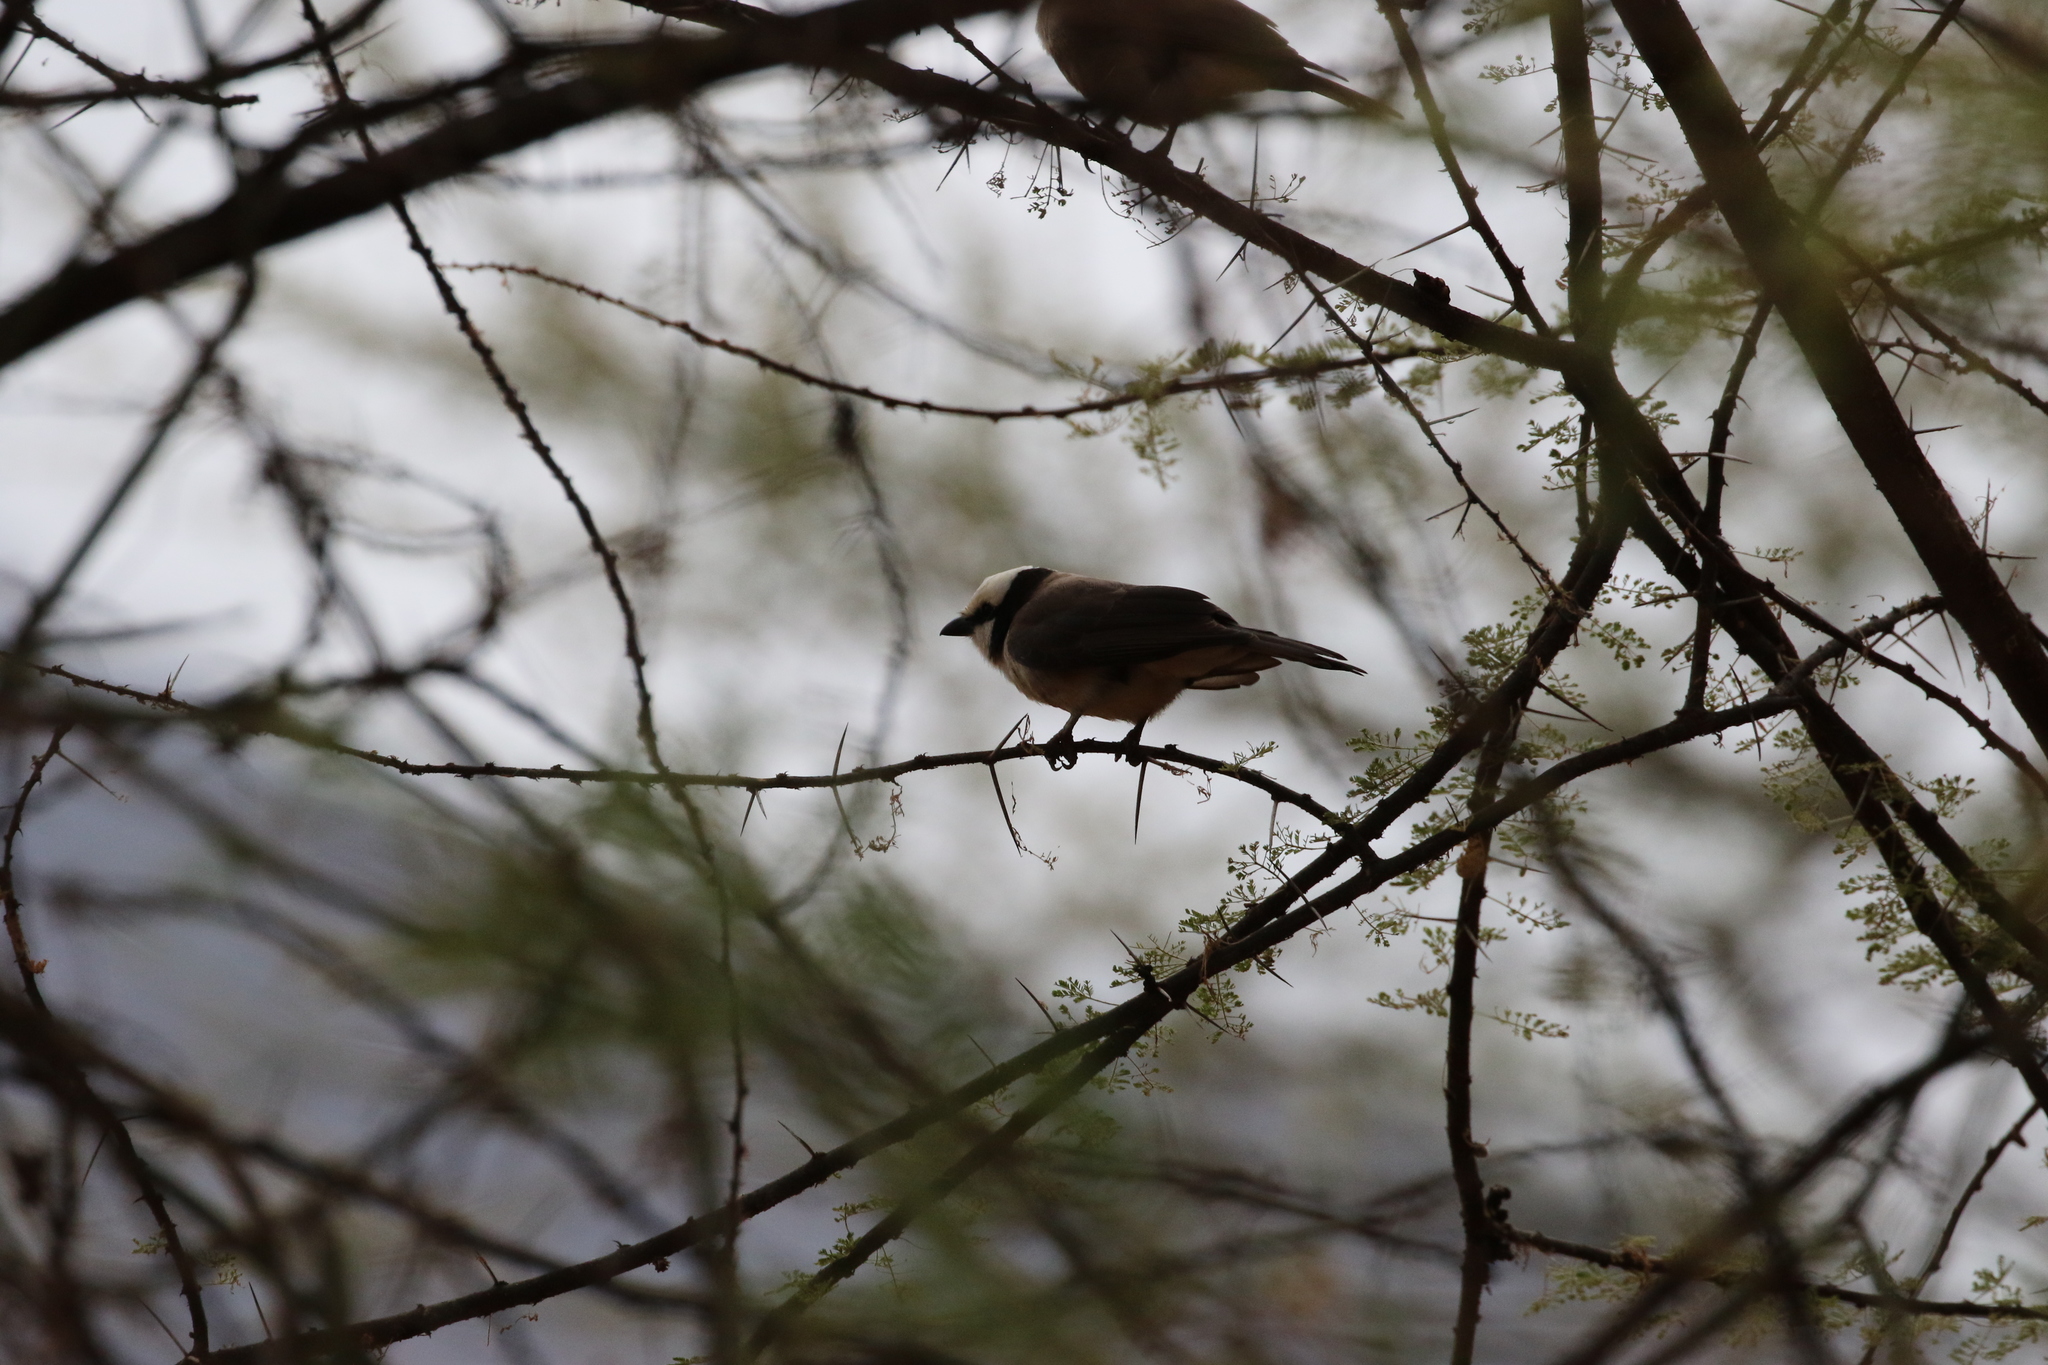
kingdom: Animalia
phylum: Chordata
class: Aves
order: Passeriformes
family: Laniidae
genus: Eurocephalus
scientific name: Eurocephalus ruppelli
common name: Northern white-crowned shrike
